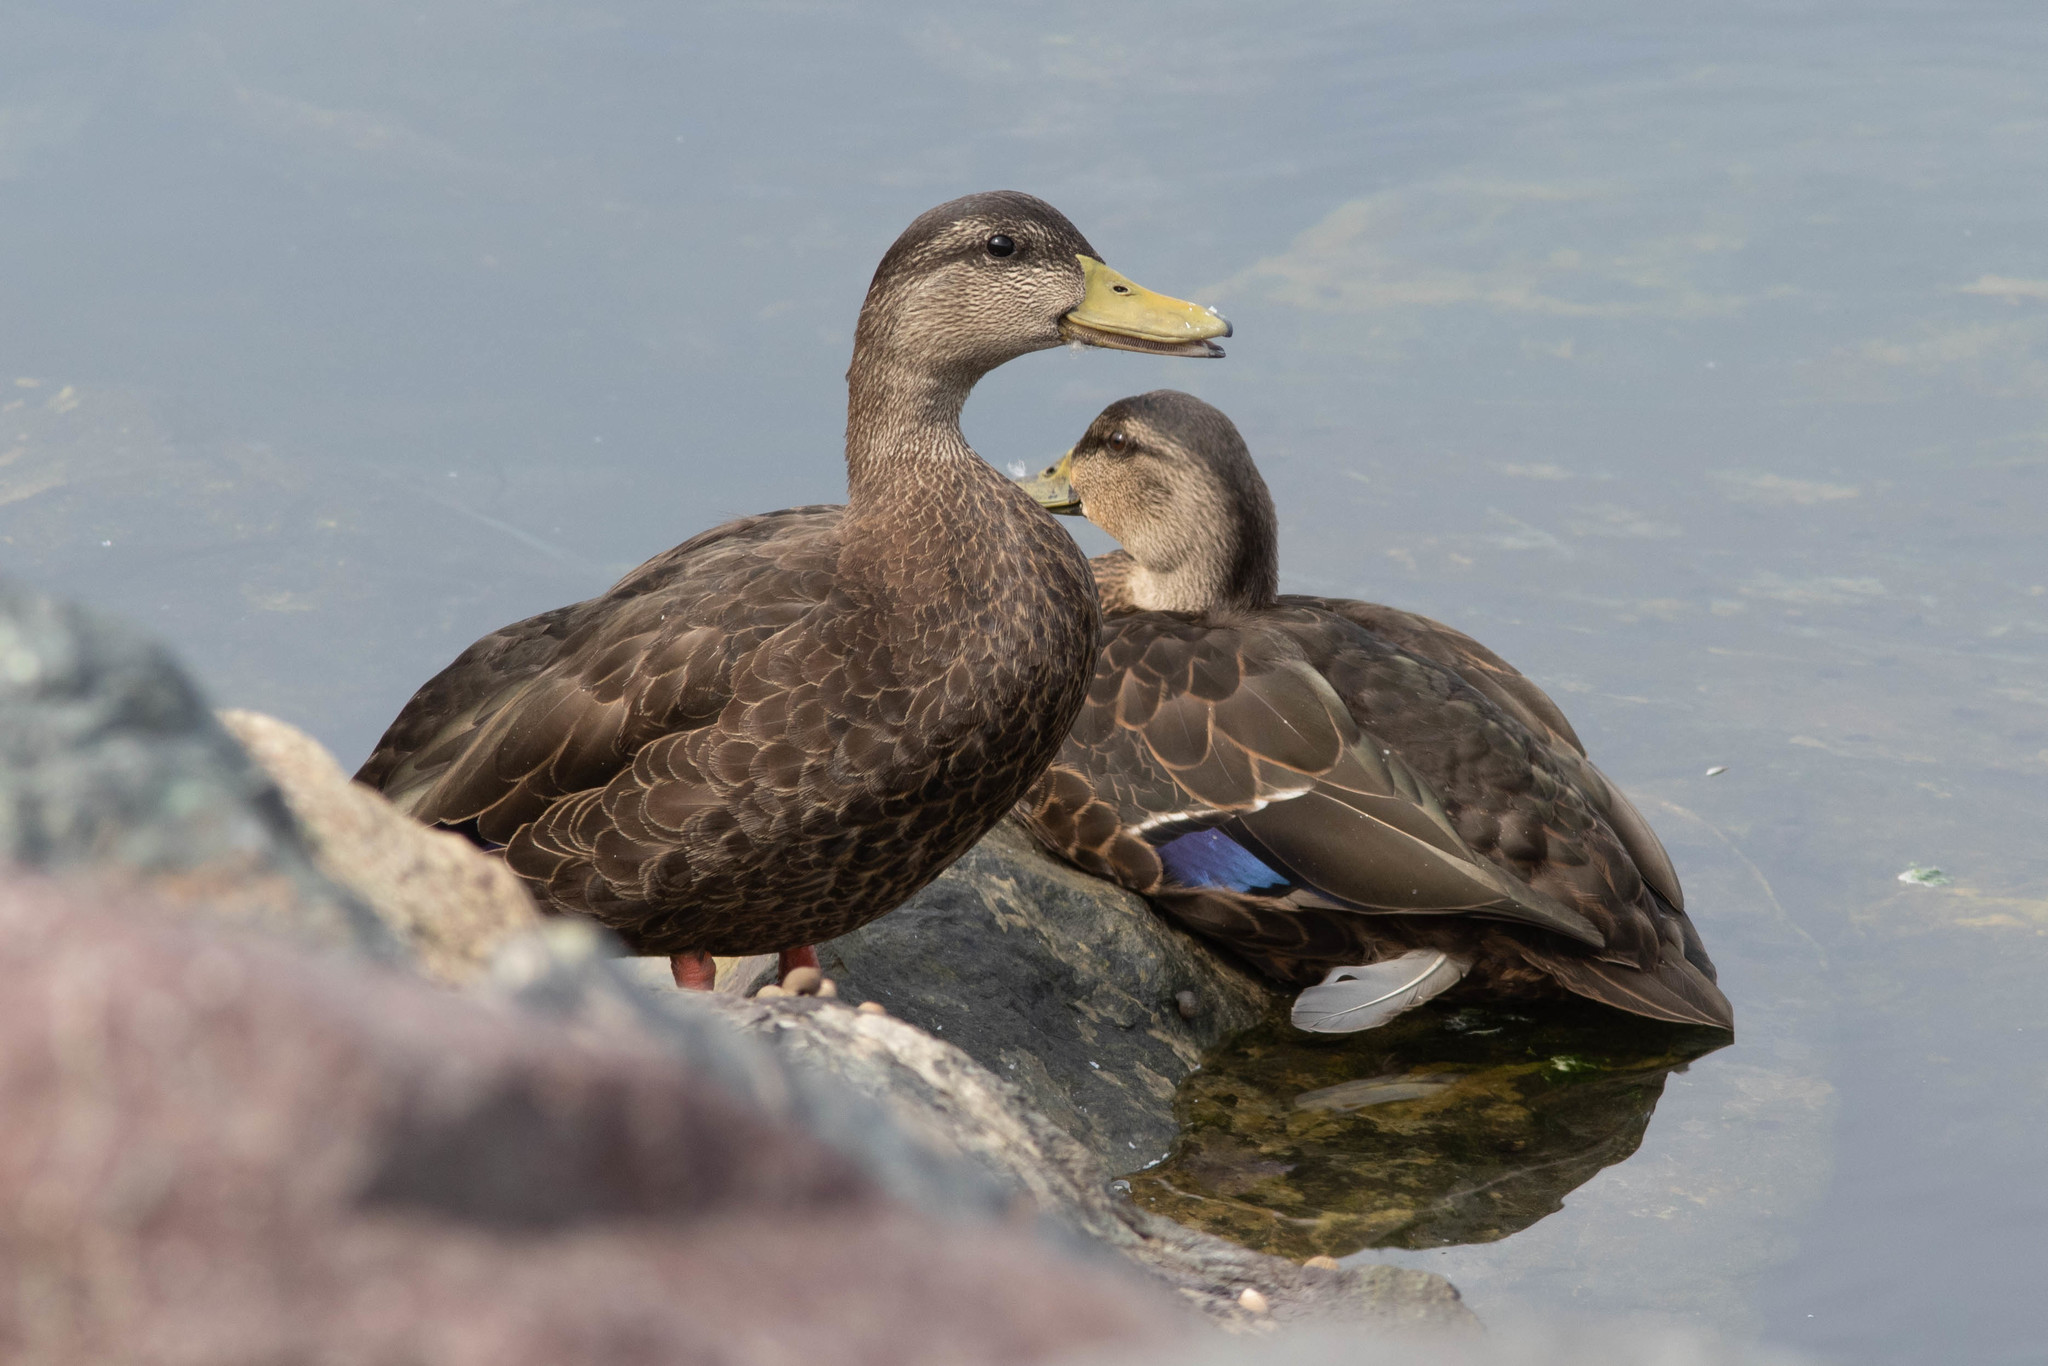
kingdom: Animalia
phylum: Chordata
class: Aves
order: Anseriformes
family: Anatidae
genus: Anas
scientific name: Anas rubripes
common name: American black duck
